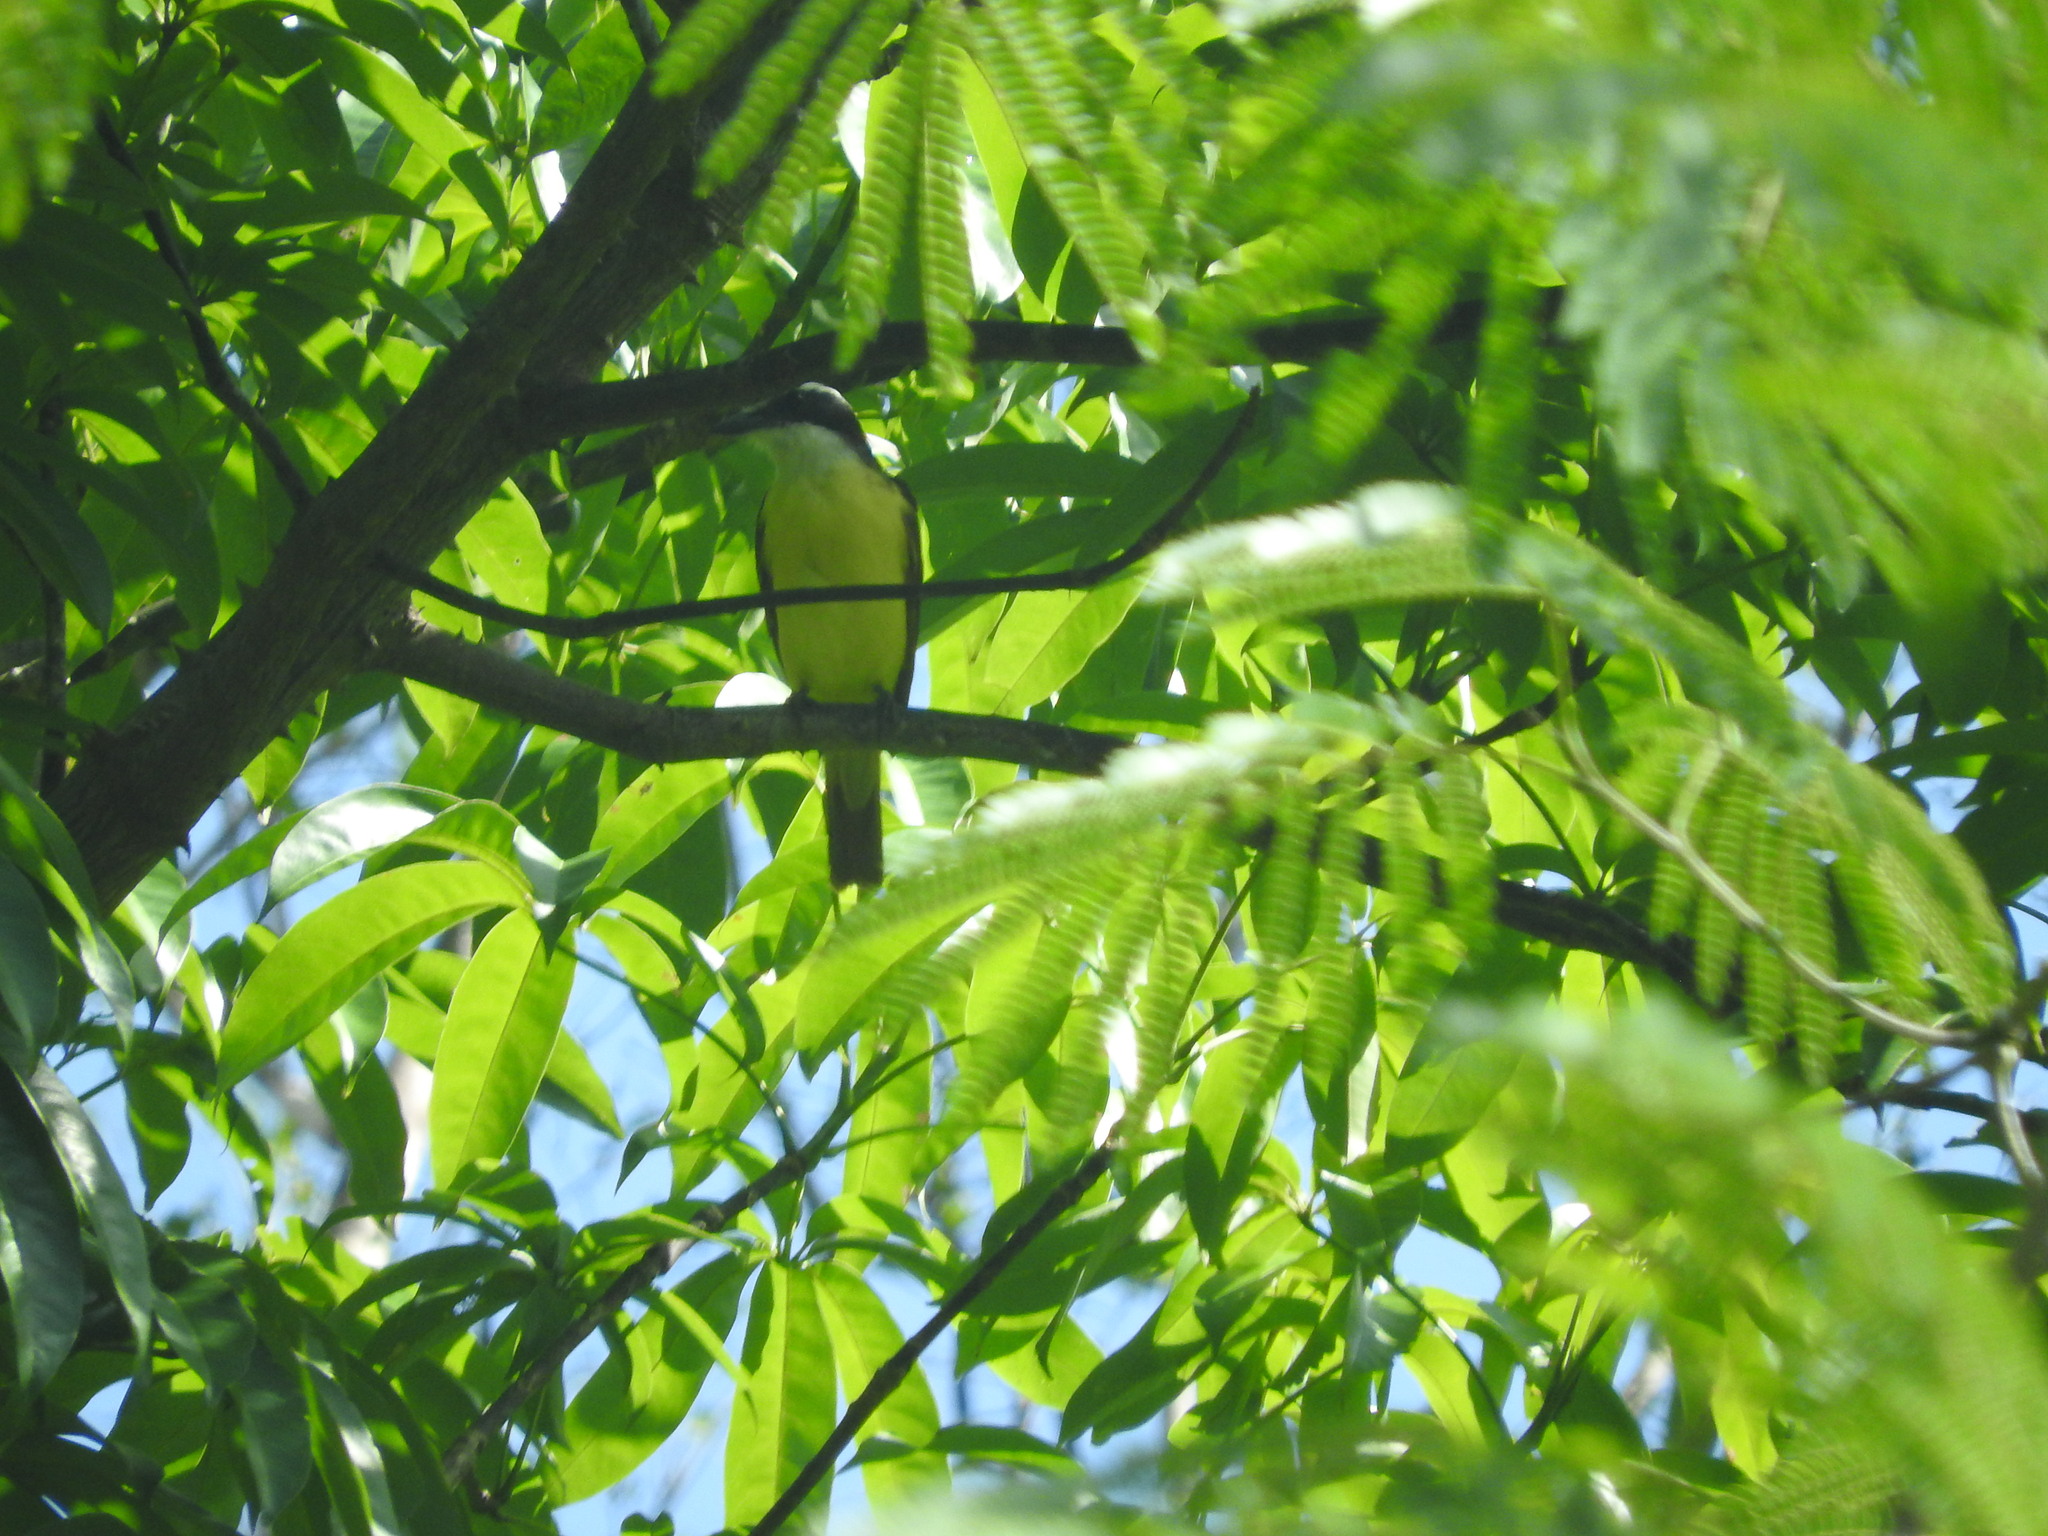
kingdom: Animalia
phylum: Chordata
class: Aves
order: Passeriformes
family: Tyrannidae
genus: Pitangus
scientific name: Pitangus sulphuratus
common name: Great kiskadee
